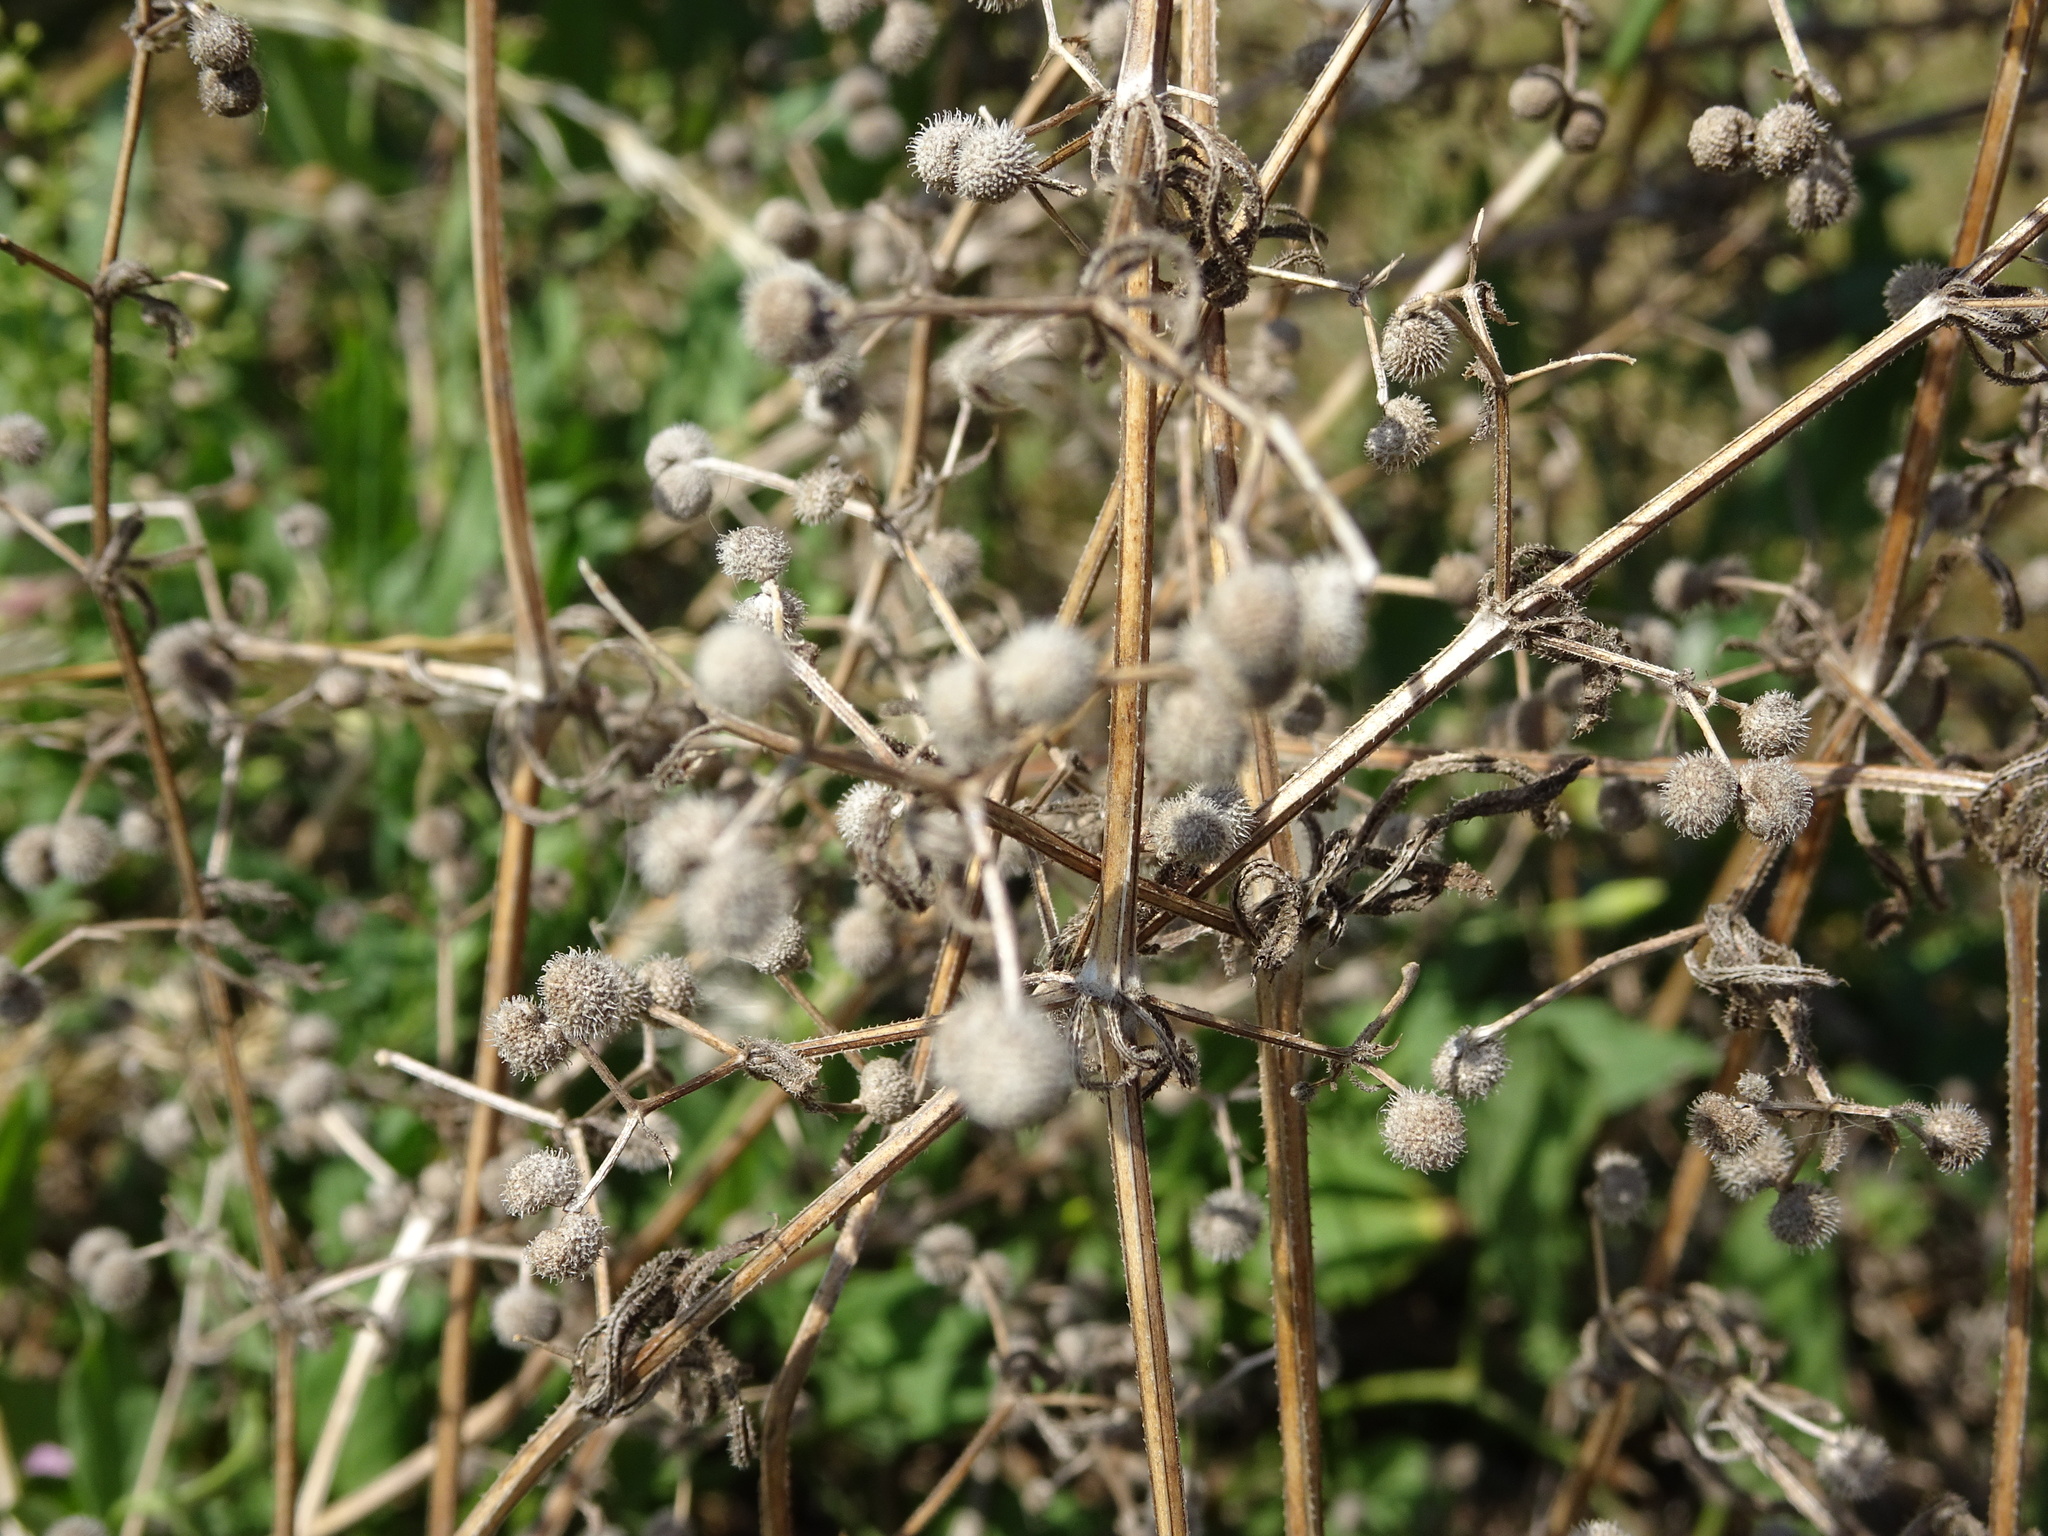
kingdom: Plantae
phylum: Tracheophyta
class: Magnoliopsida
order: Gentianales
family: Rubiaceae
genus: Galium
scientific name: Galium aparine
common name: Cleavers
